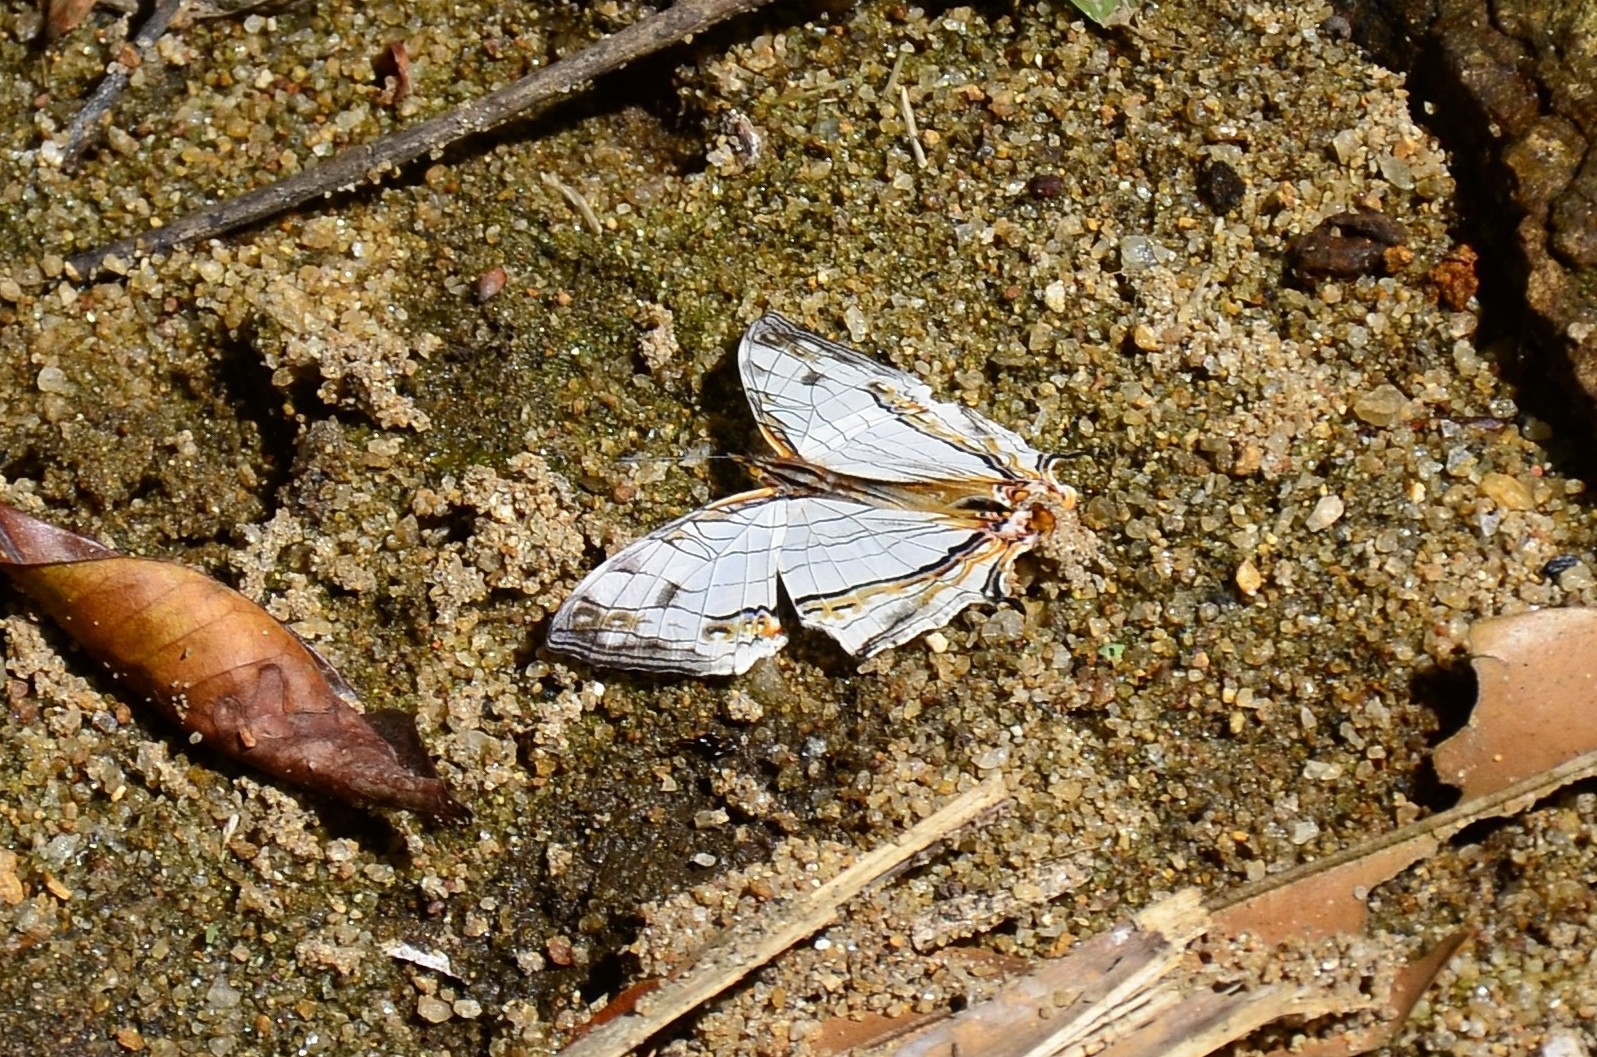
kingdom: Animalia
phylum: Arthropoda
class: Insecta
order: Lepidoptera
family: Nymphalidae
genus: Cyrestis
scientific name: Cyrestis thyodamas
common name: Common mapwing
